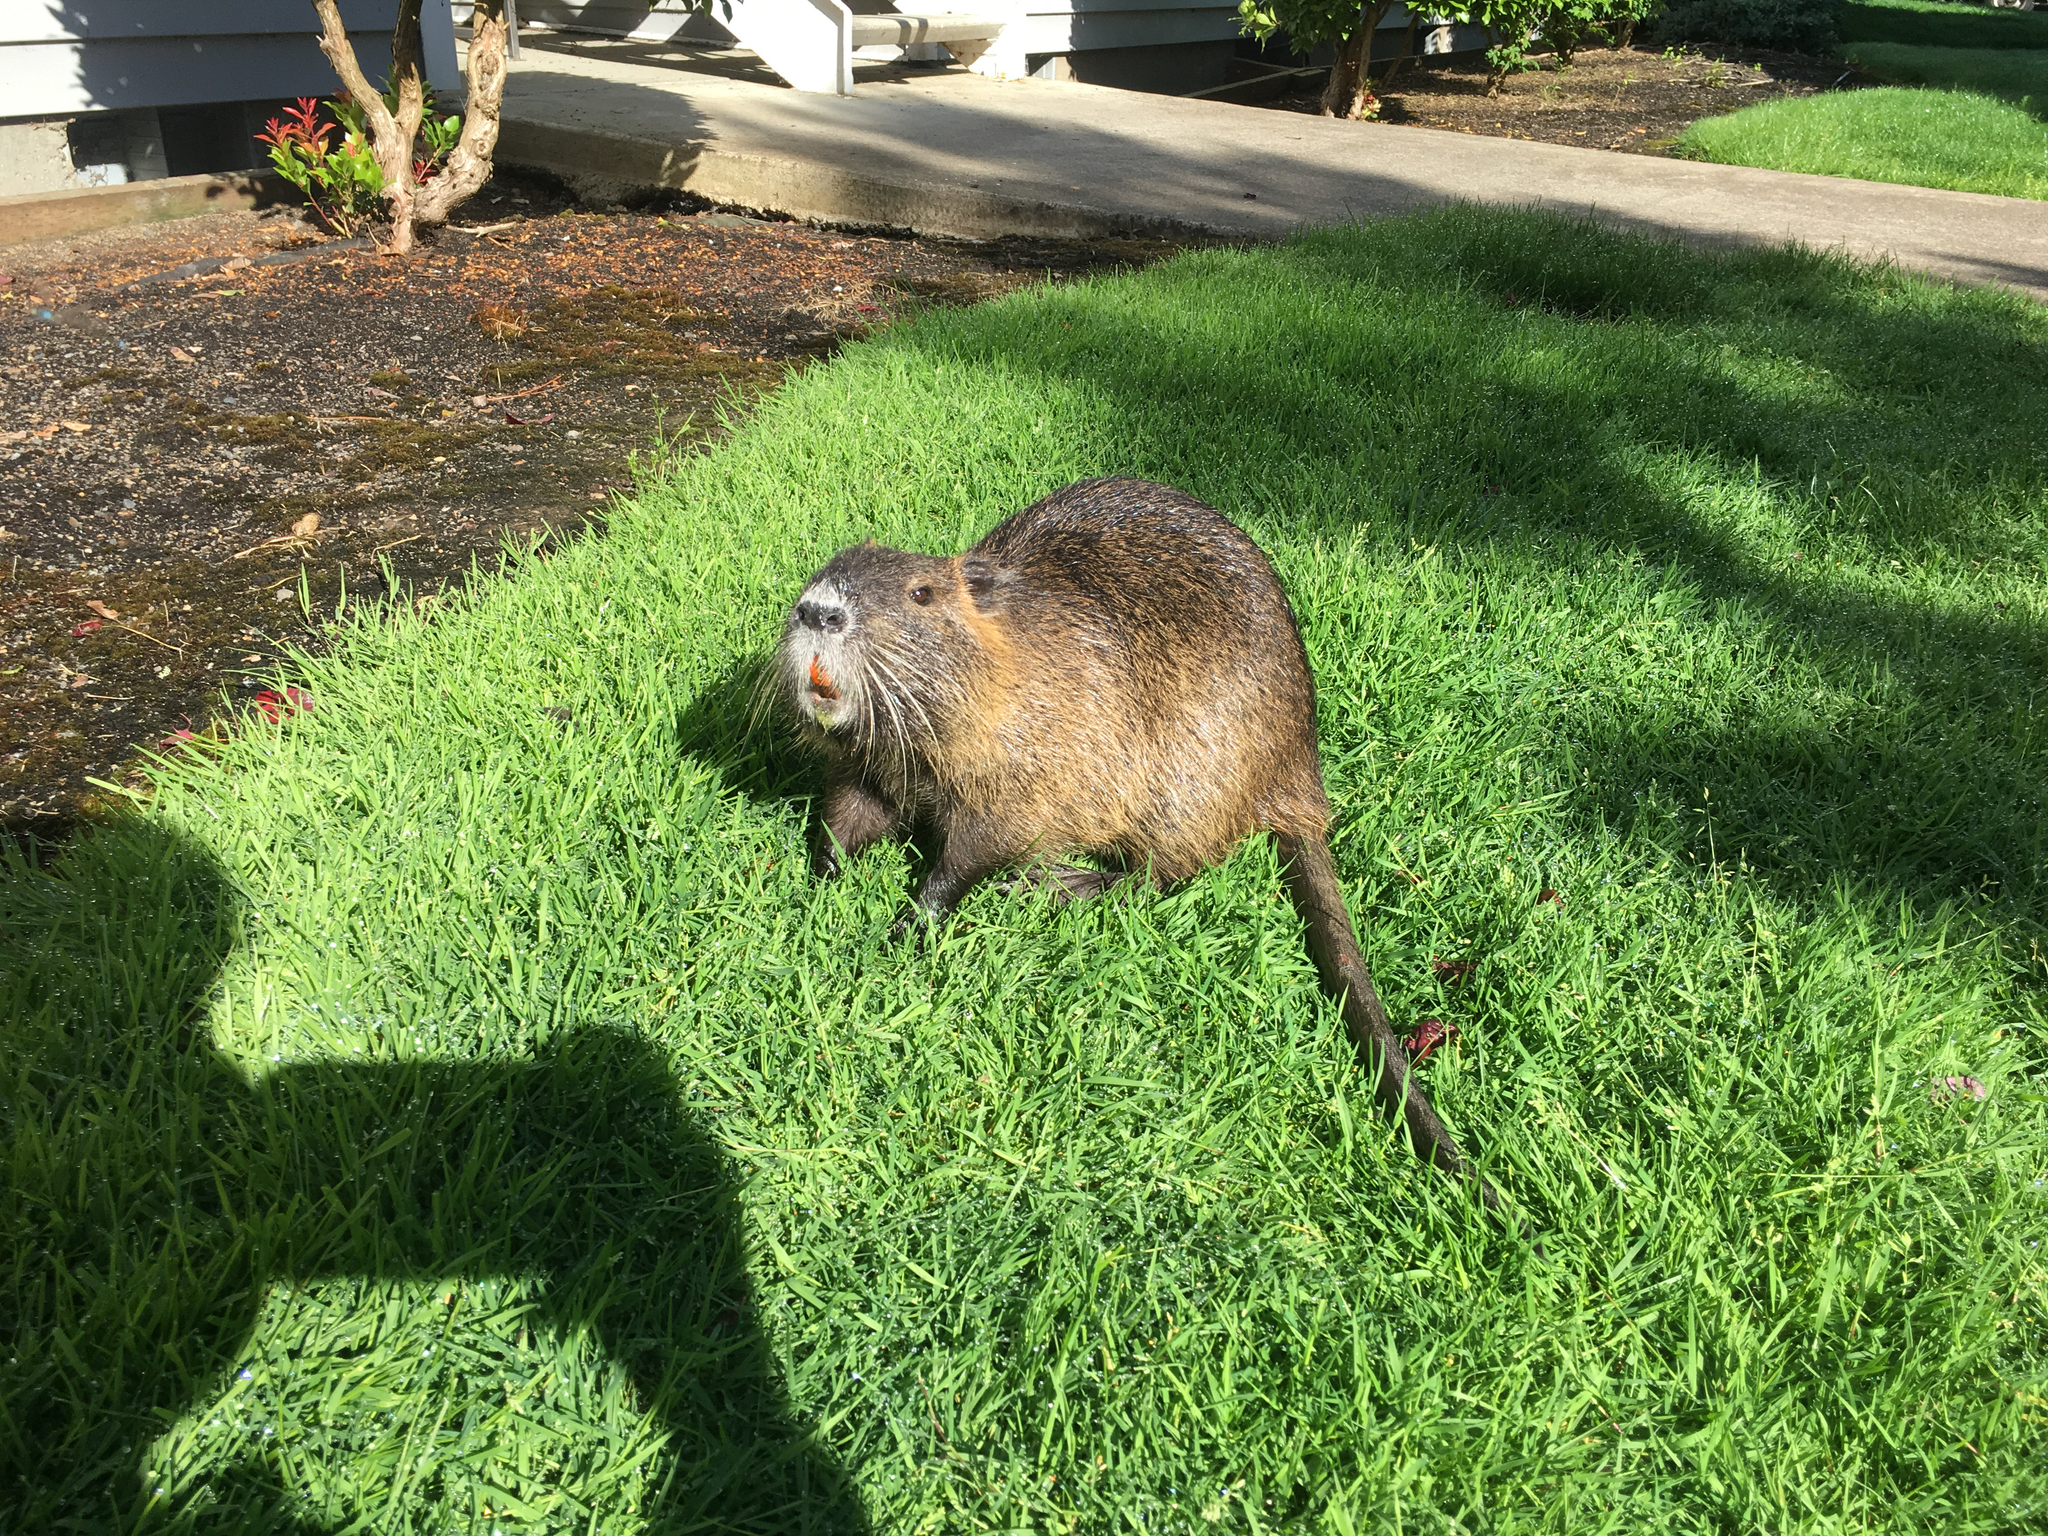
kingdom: Animalia
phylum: Chordata
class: Mammalia
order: Rodentia
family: Myocastoridae
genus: Myocastor
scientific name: Myocastor coypus
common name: Coypu
